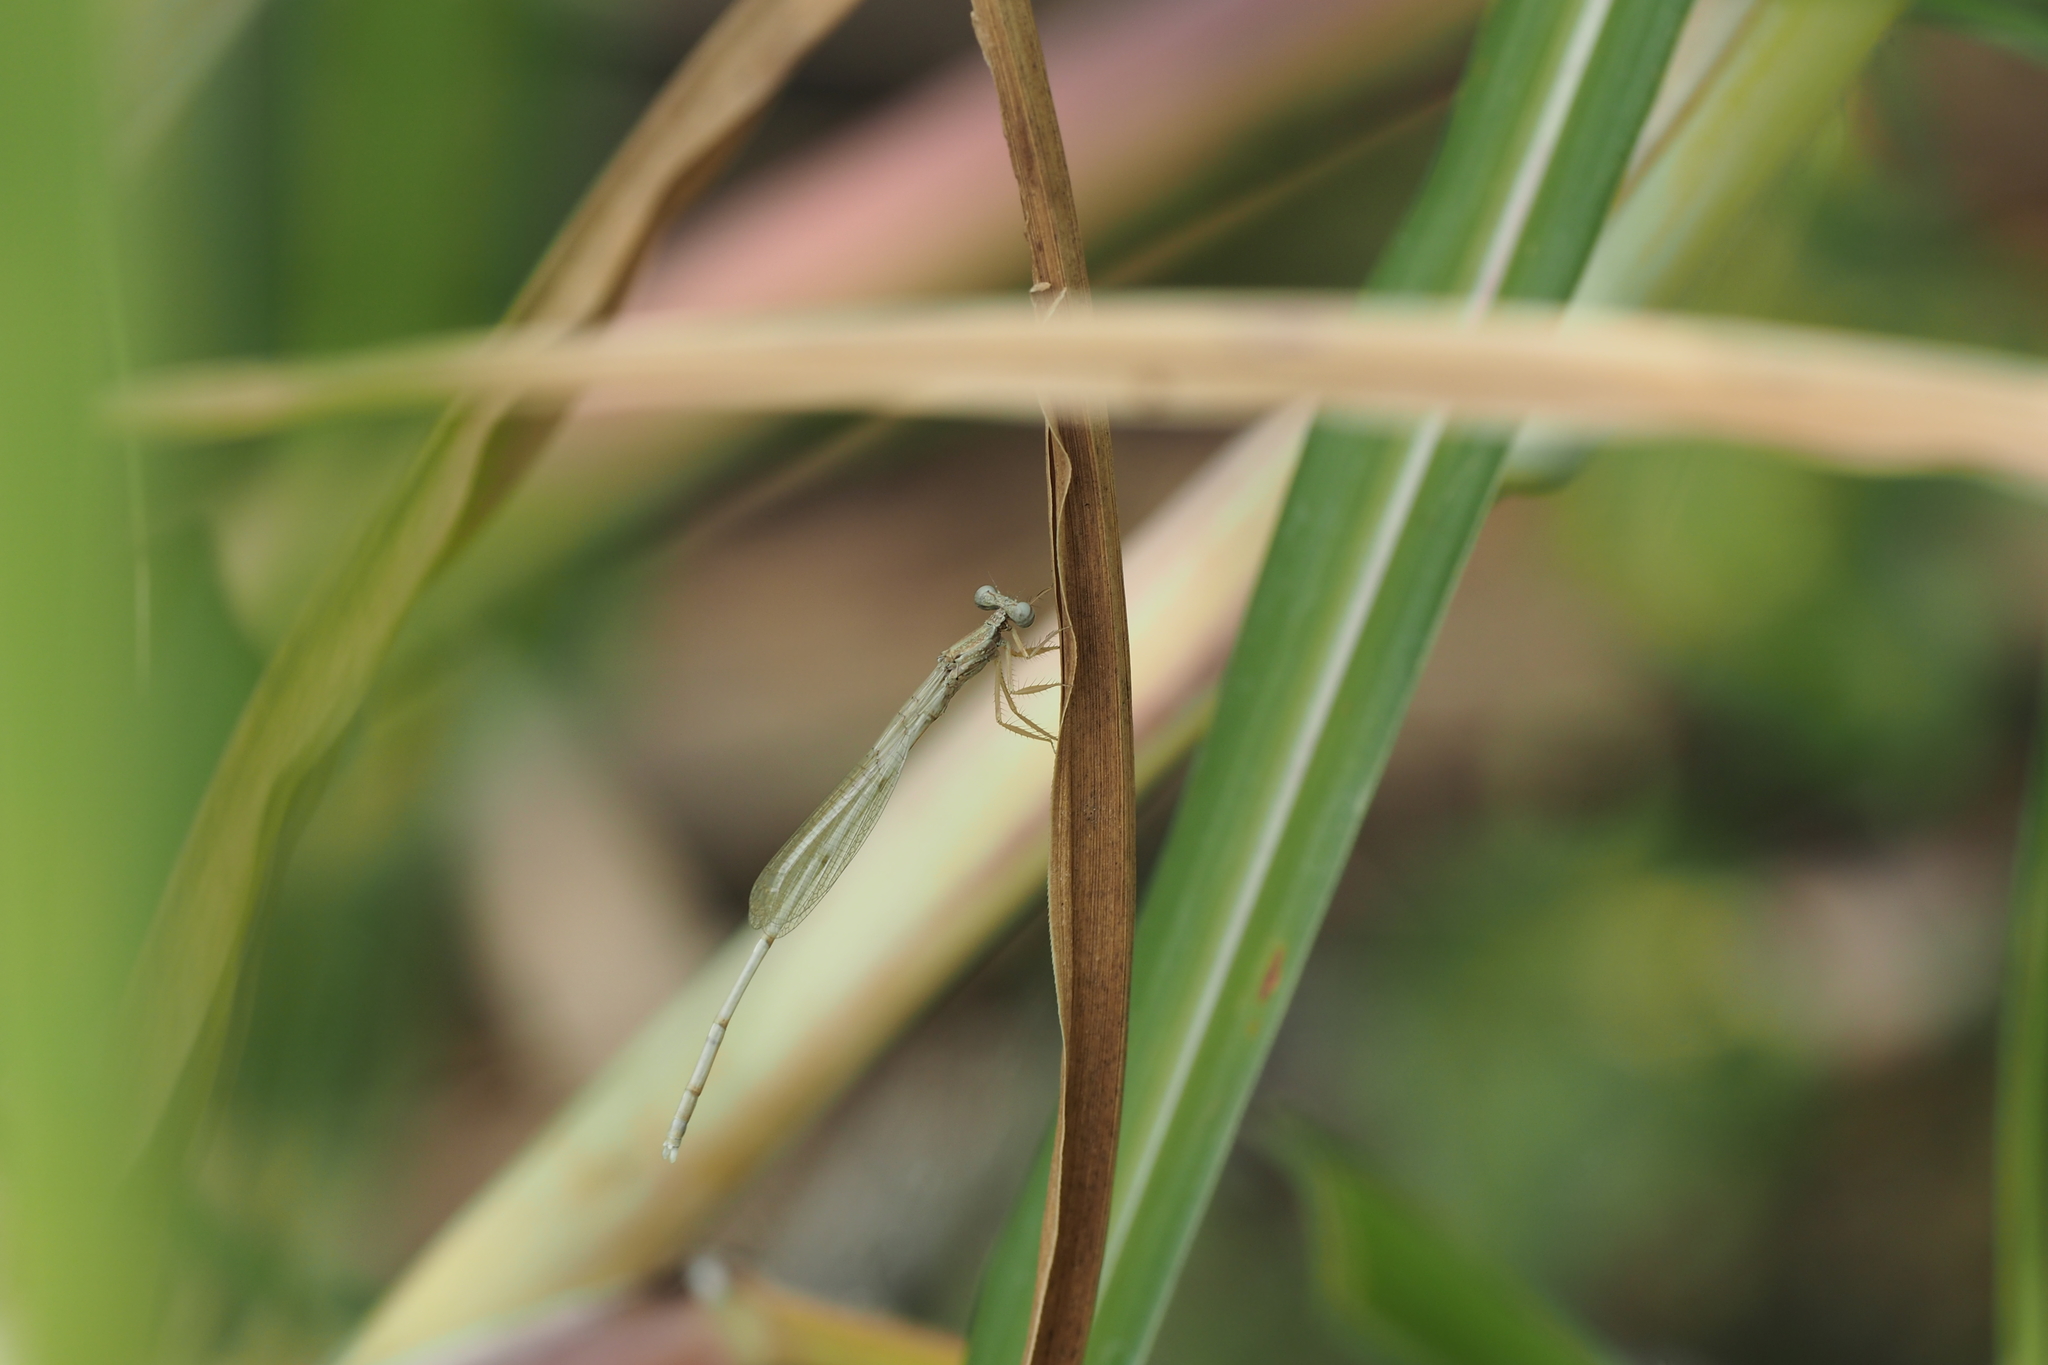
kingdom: Animalia
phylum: Arthropoda
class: Insecta
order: Odonata
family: Platycnemididae
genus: Copera
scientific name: Copera marginipes
